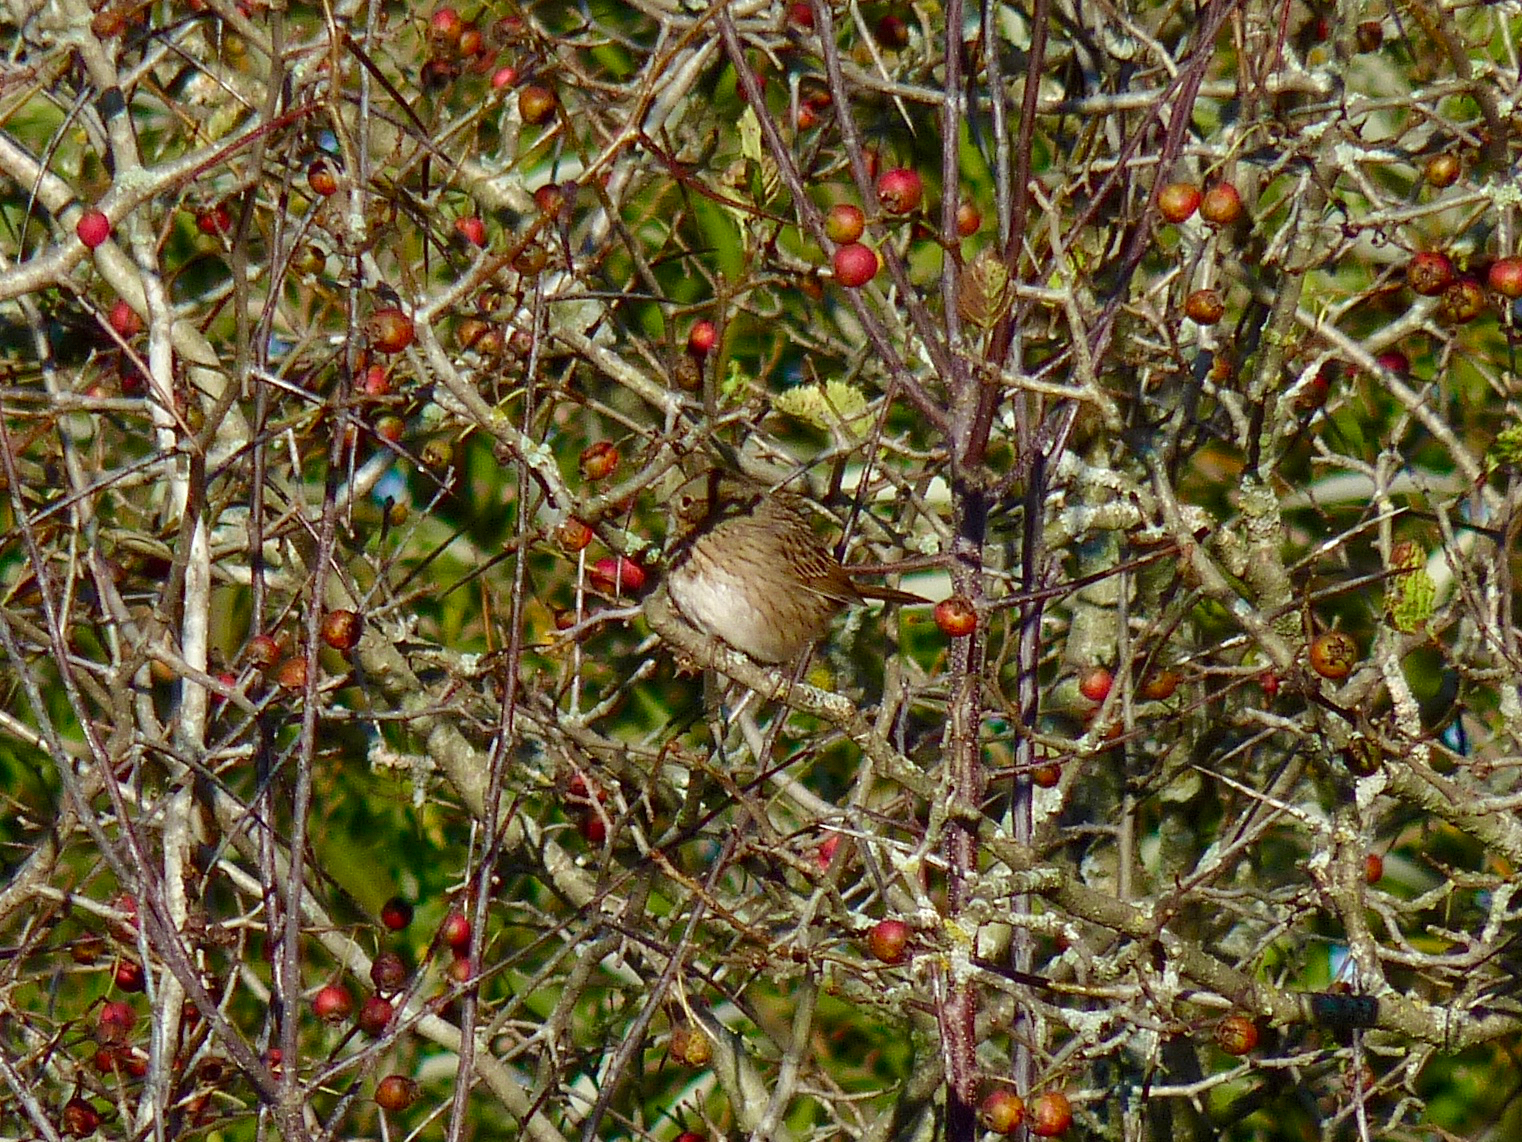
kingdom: Animalia
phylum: Chordata
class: Aves
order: Passeriformes
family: Passerellidae
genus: Melospiza
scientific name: Melospiza lincolnii
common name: Lincoln's sparrow
